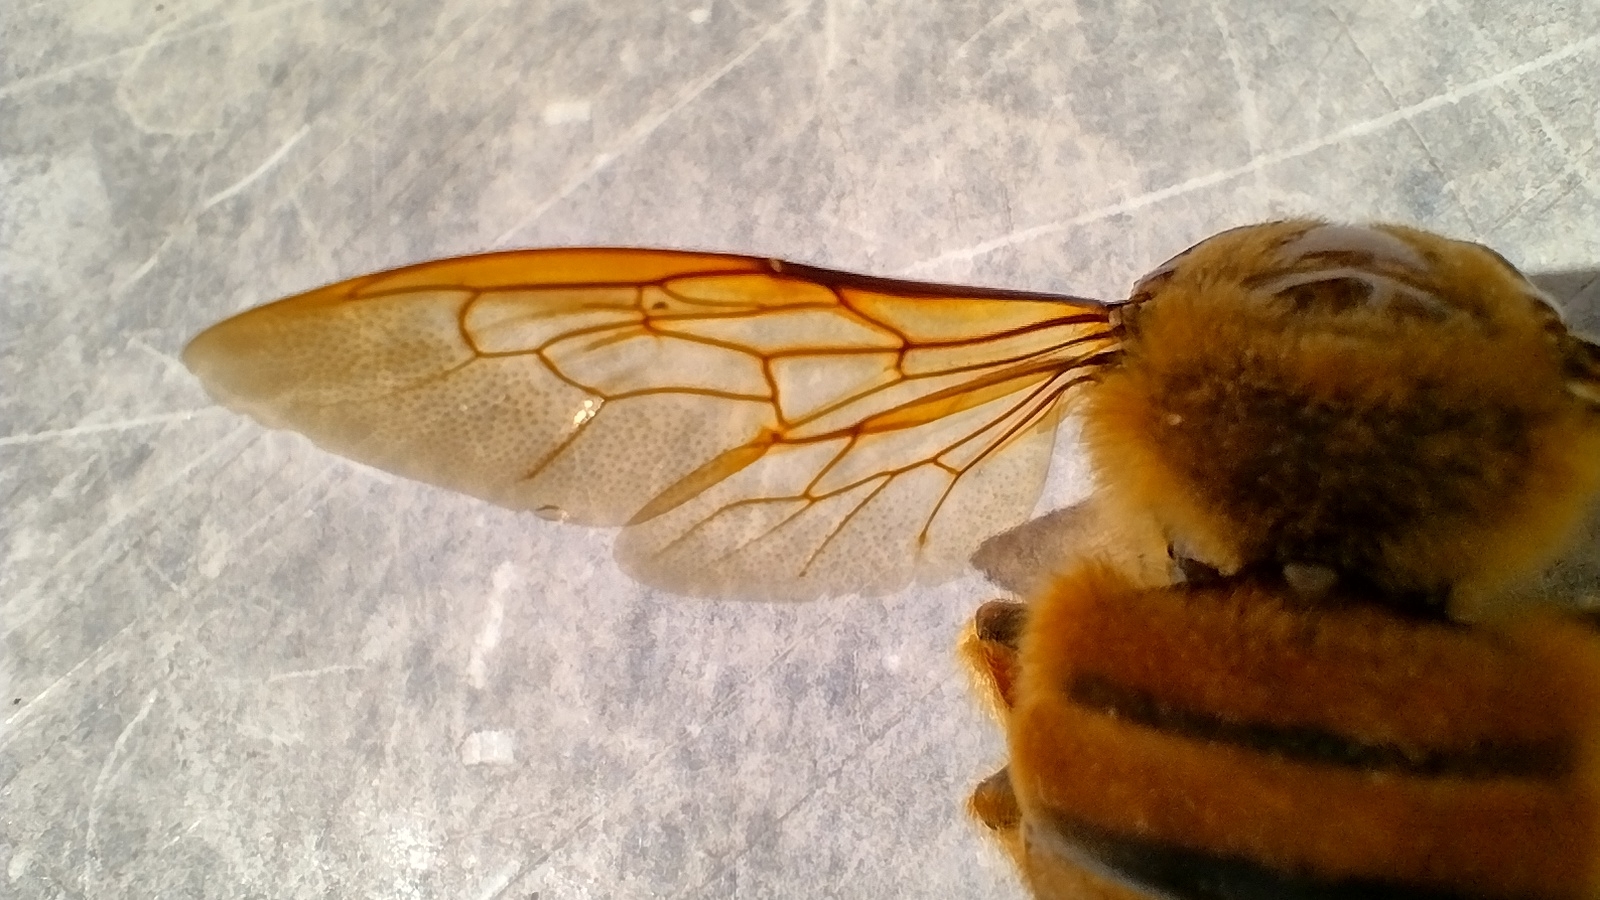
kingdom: Animalia
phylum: Arthropoda
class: Insecta
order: Hymenoptera
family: Apidae
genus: Xylocopa
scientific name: Xylocopa augusti
